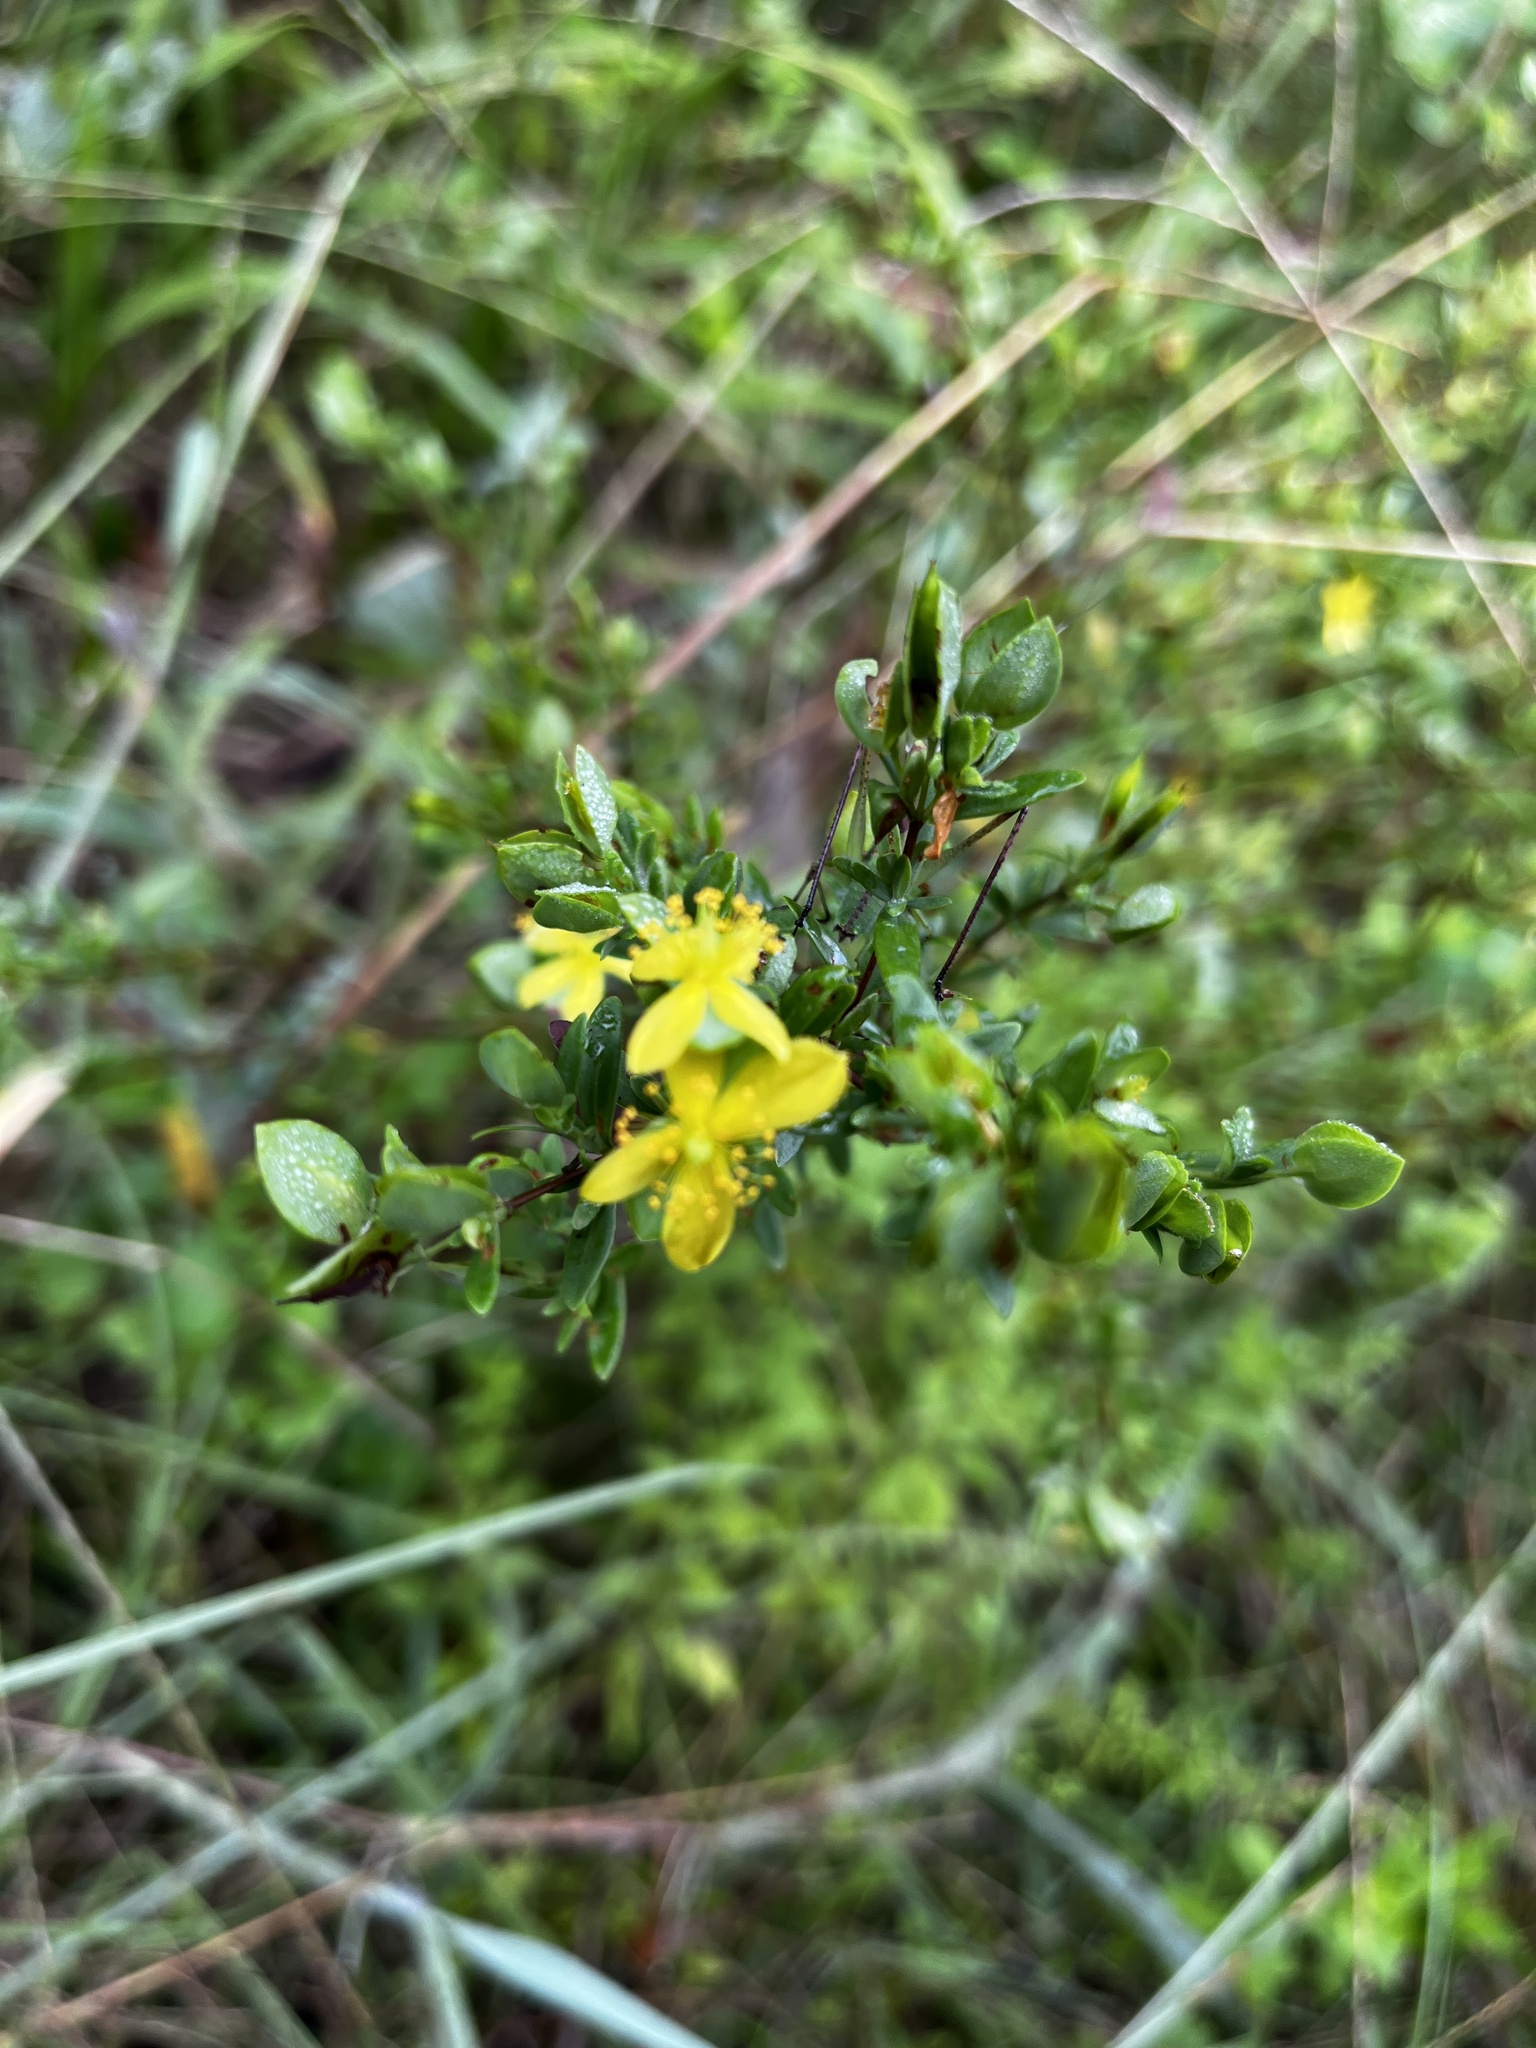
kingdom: Plantae
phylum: Tracheophyta
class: Magnoliopsida
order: Malpighiales
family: Hypericaceae
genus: Hypericum
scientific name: Hypericum hypericoides
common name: St. andrew's cross
